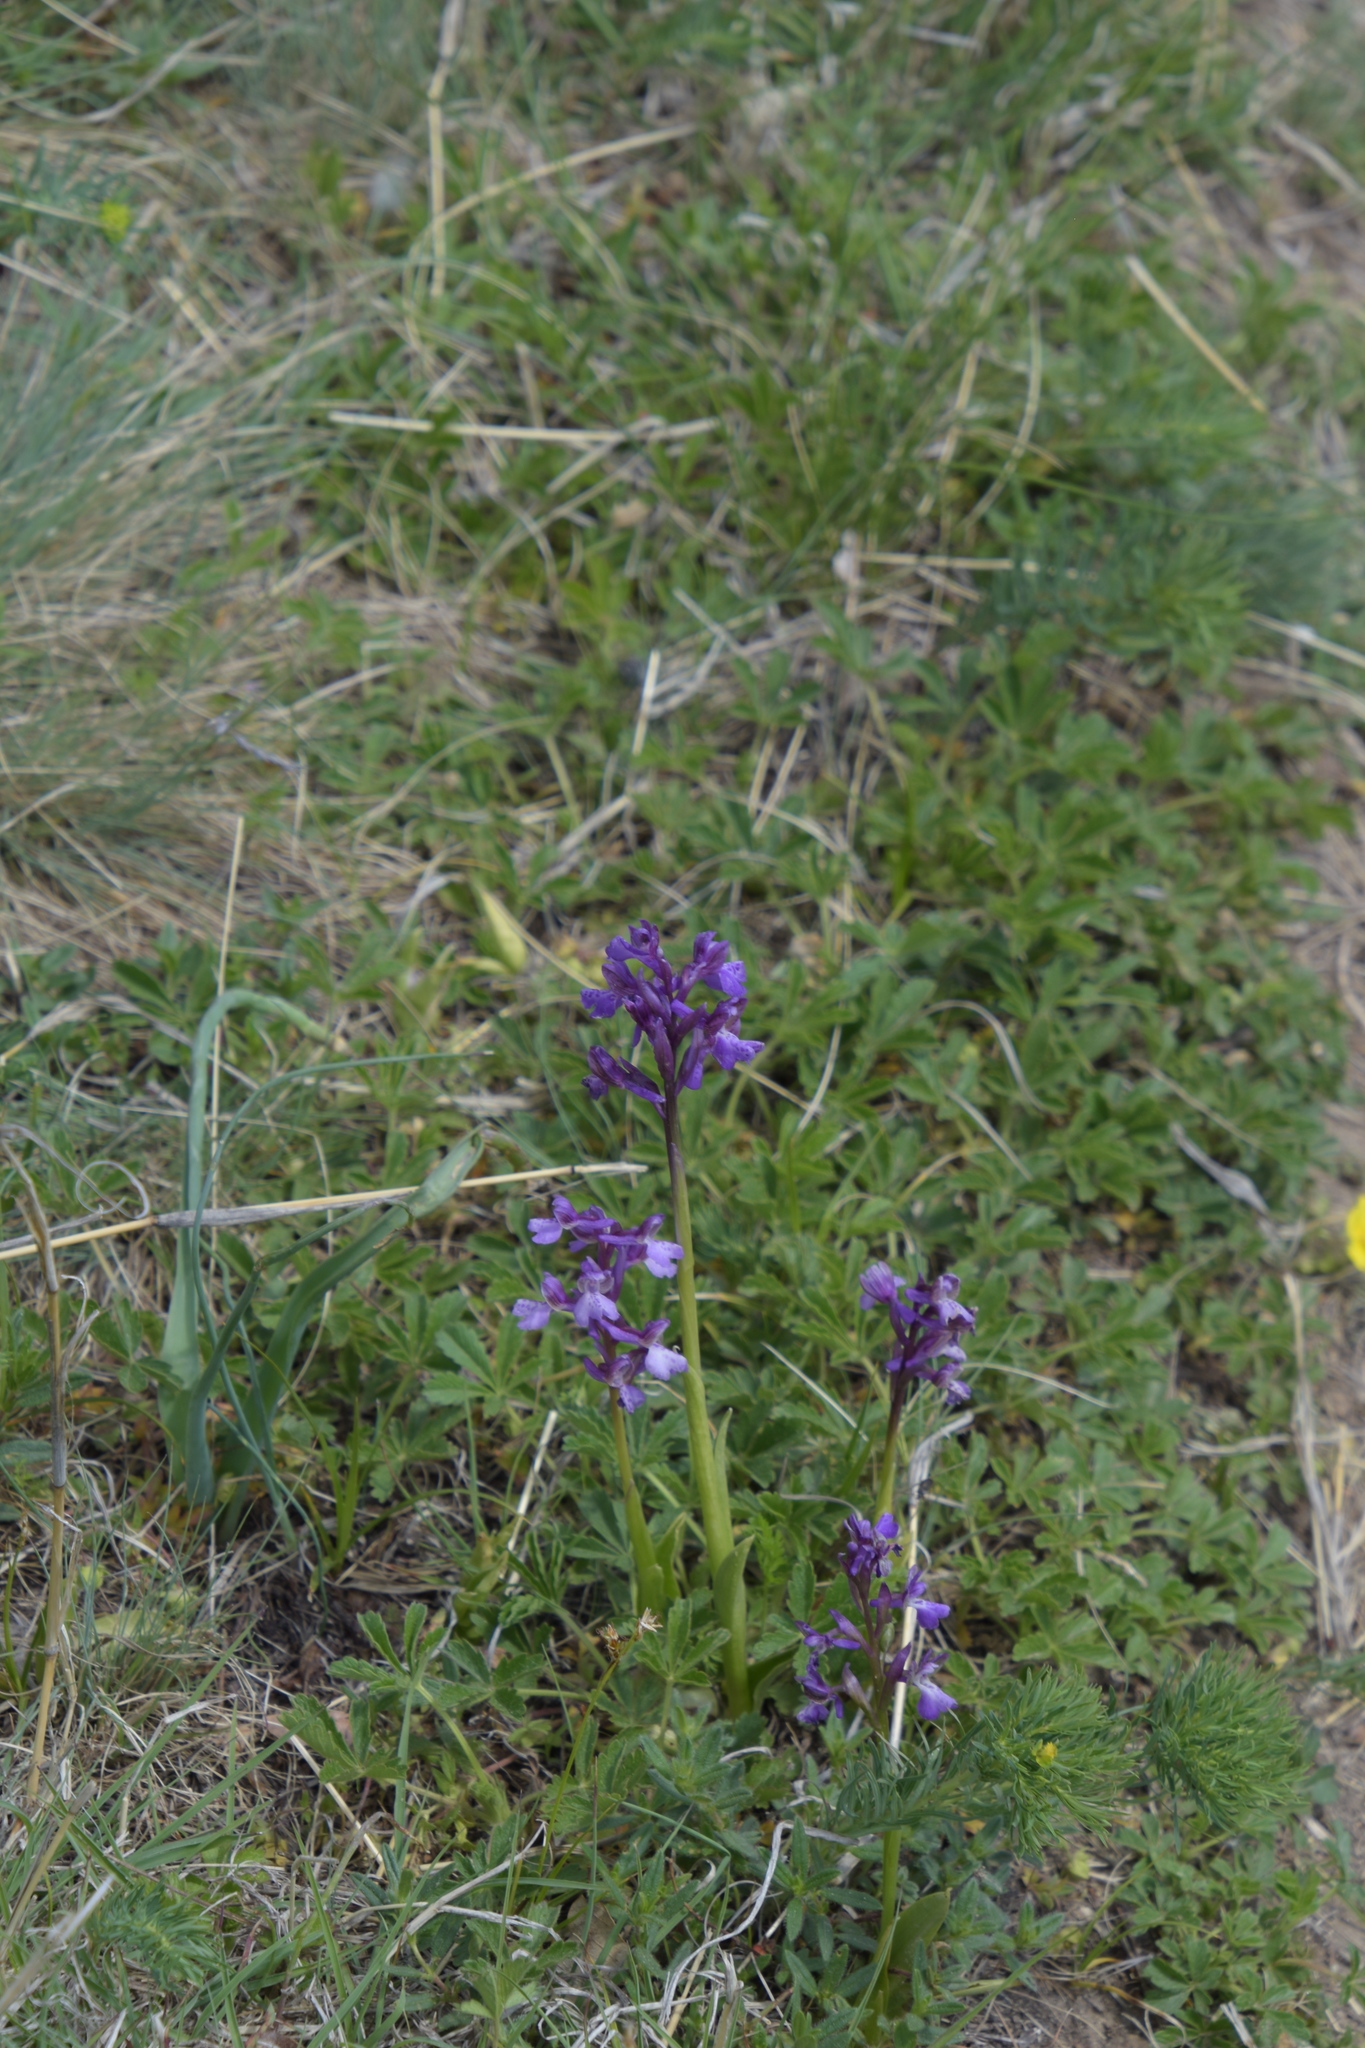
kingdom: Plantae
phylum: Tracheophyta
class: Liliopsida
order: Asparagales
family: Orchidaceae
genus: Anacamptis
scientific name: Anacamptis morio
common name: Green-winged orchid
